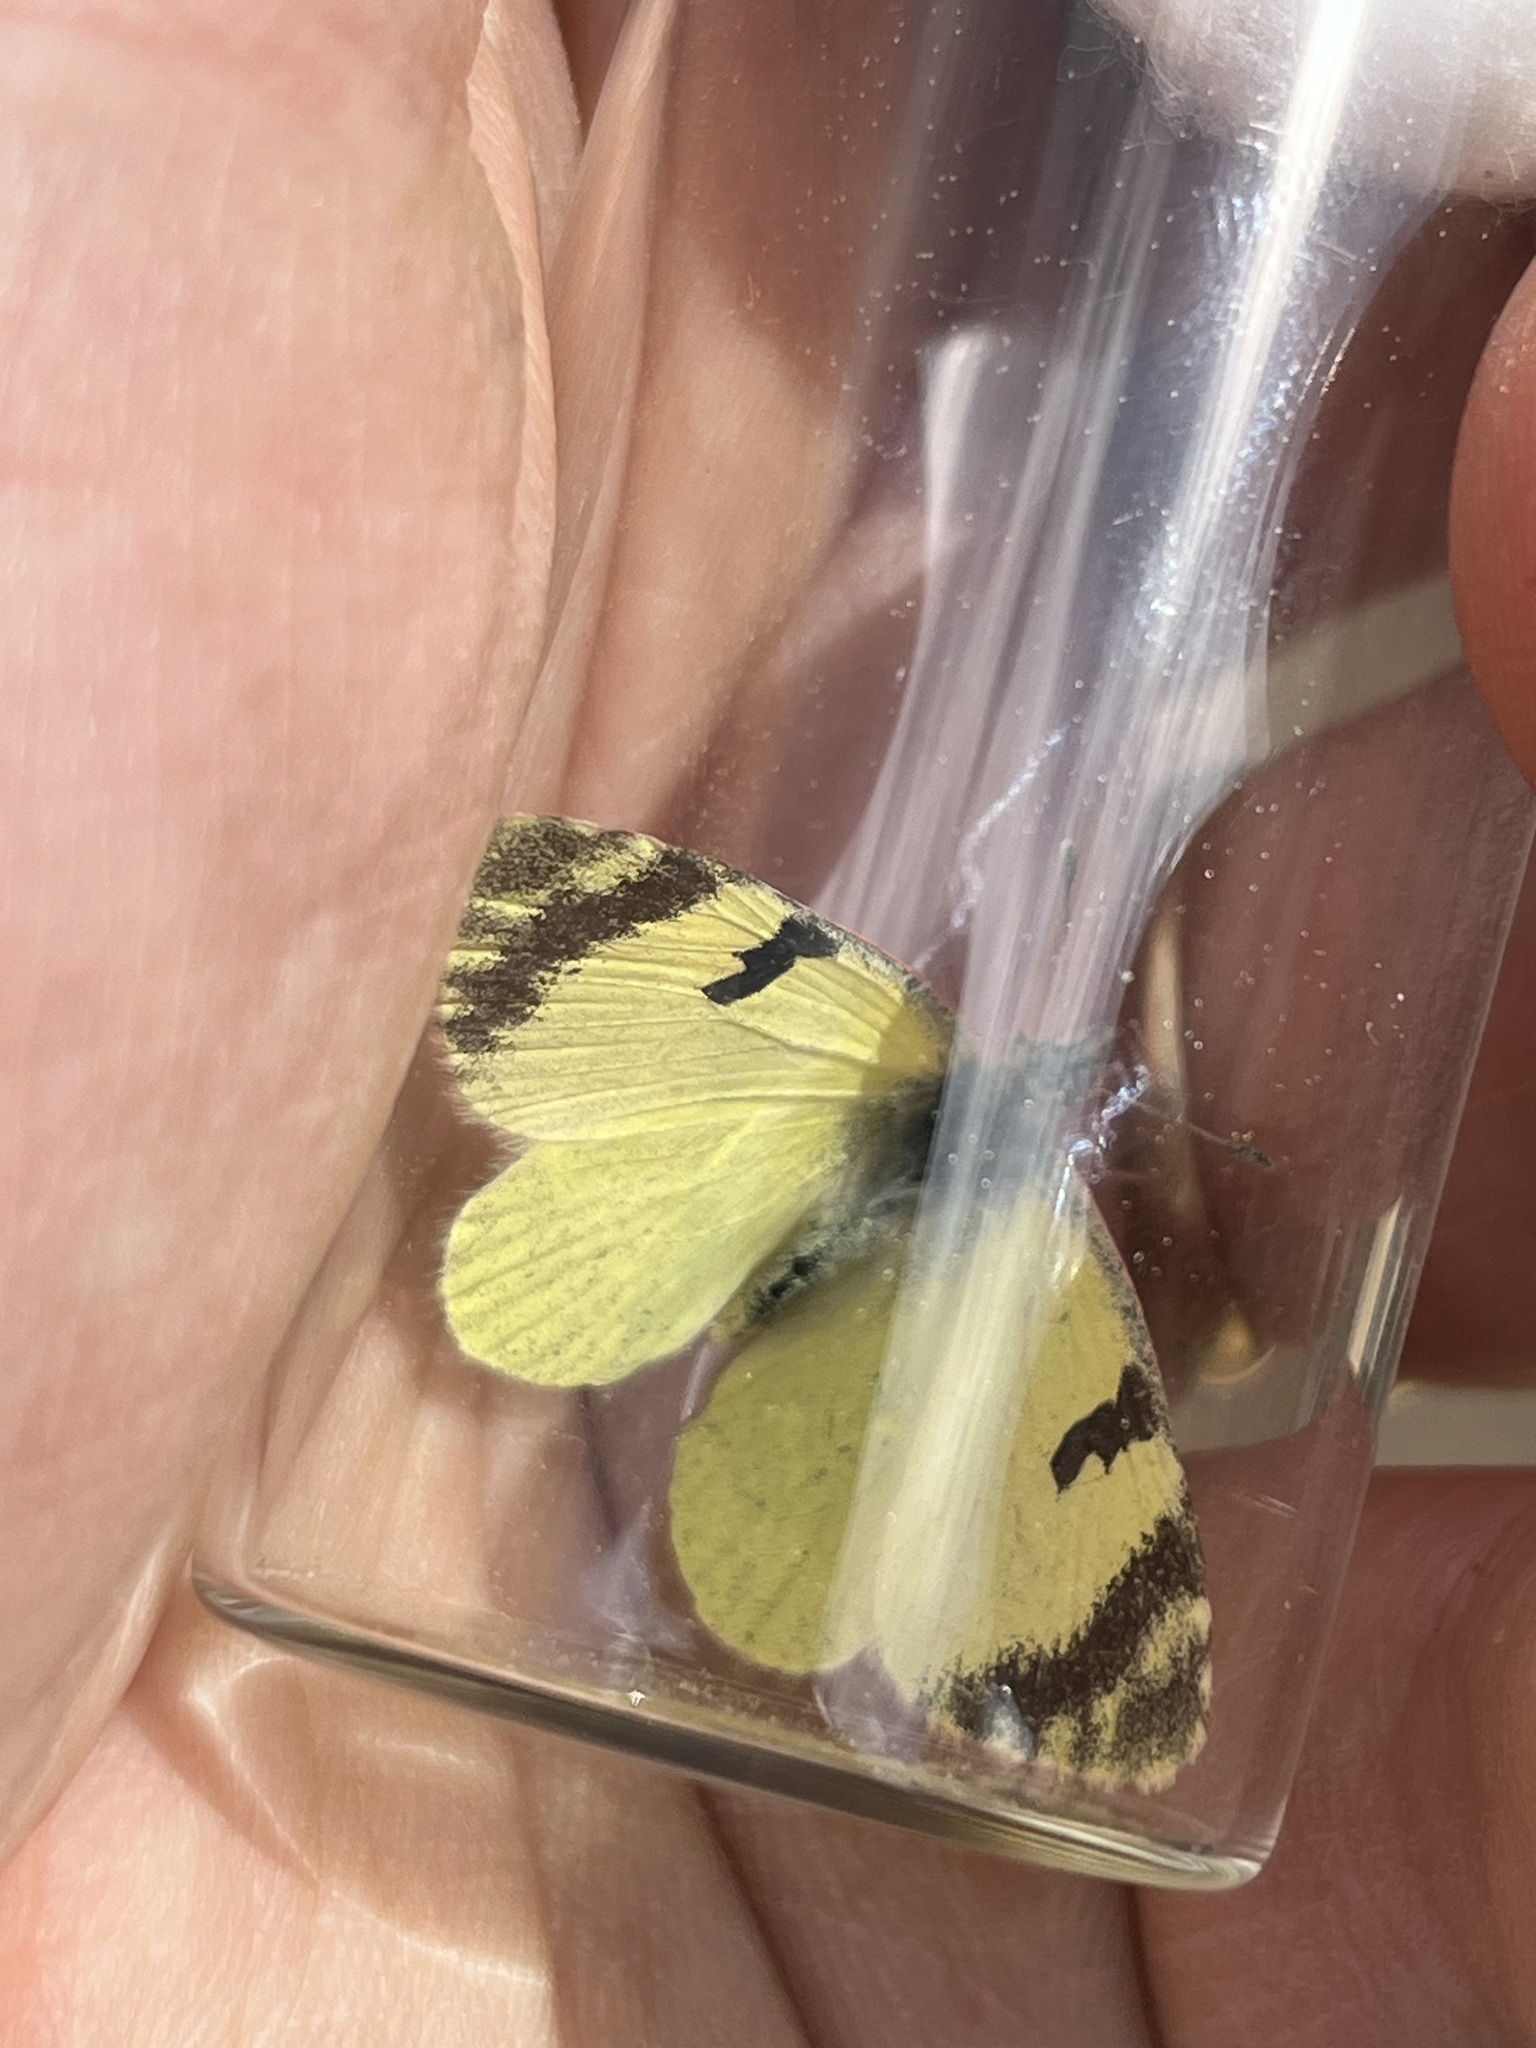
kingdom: Animalia
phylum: Arthropoda
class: Insecta
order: Lepidoptera
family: Pieridae
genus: Elphinstonia
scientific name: Elphinstonia charlonia
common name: Greenish black-tip
